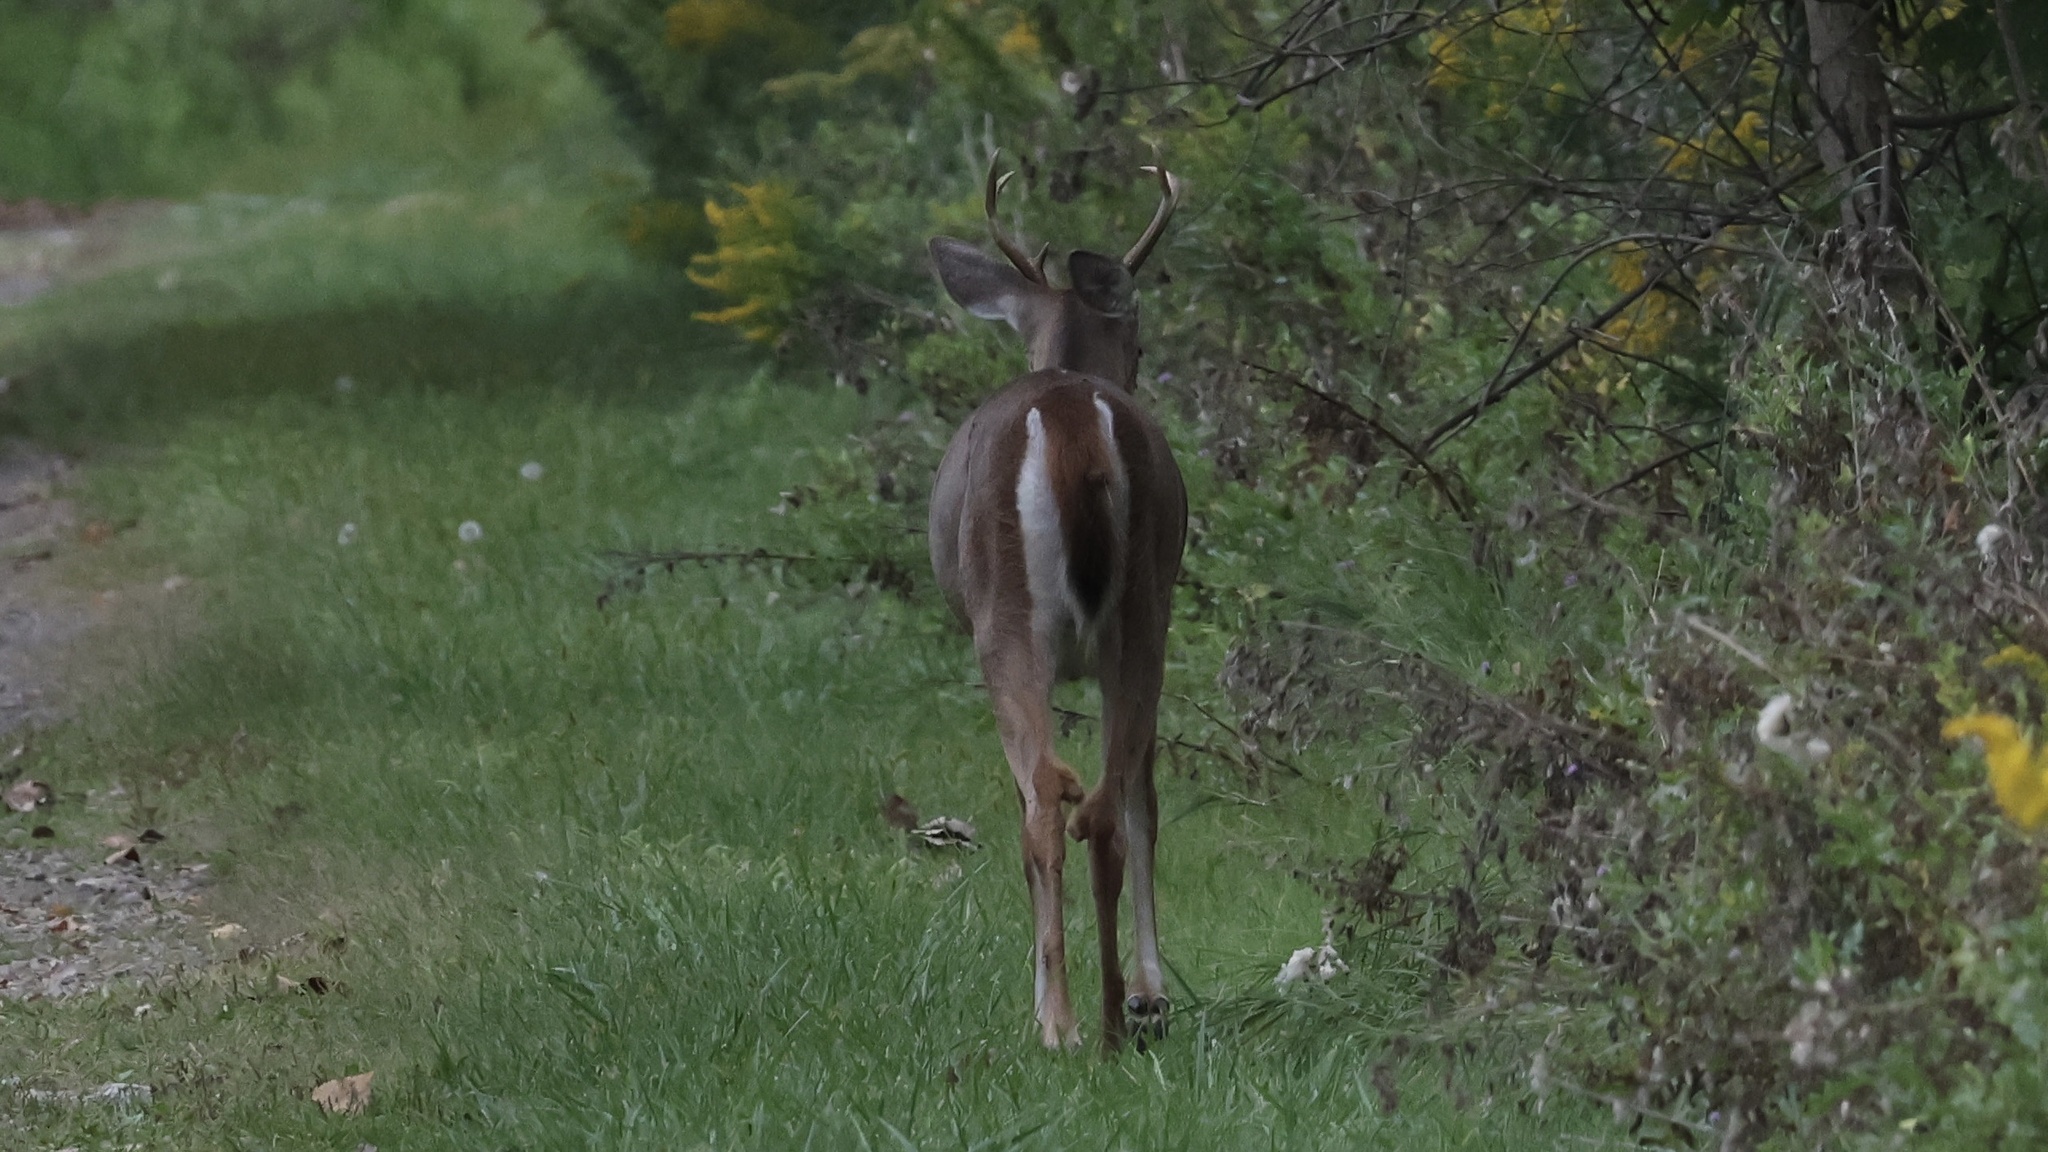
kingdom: Animalia
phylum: Chordata
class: Mammalia
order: Artiodactyla
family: Cervidae
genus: Odocoileus
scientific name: Odocoileus virginianus
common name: White-tailed deer
